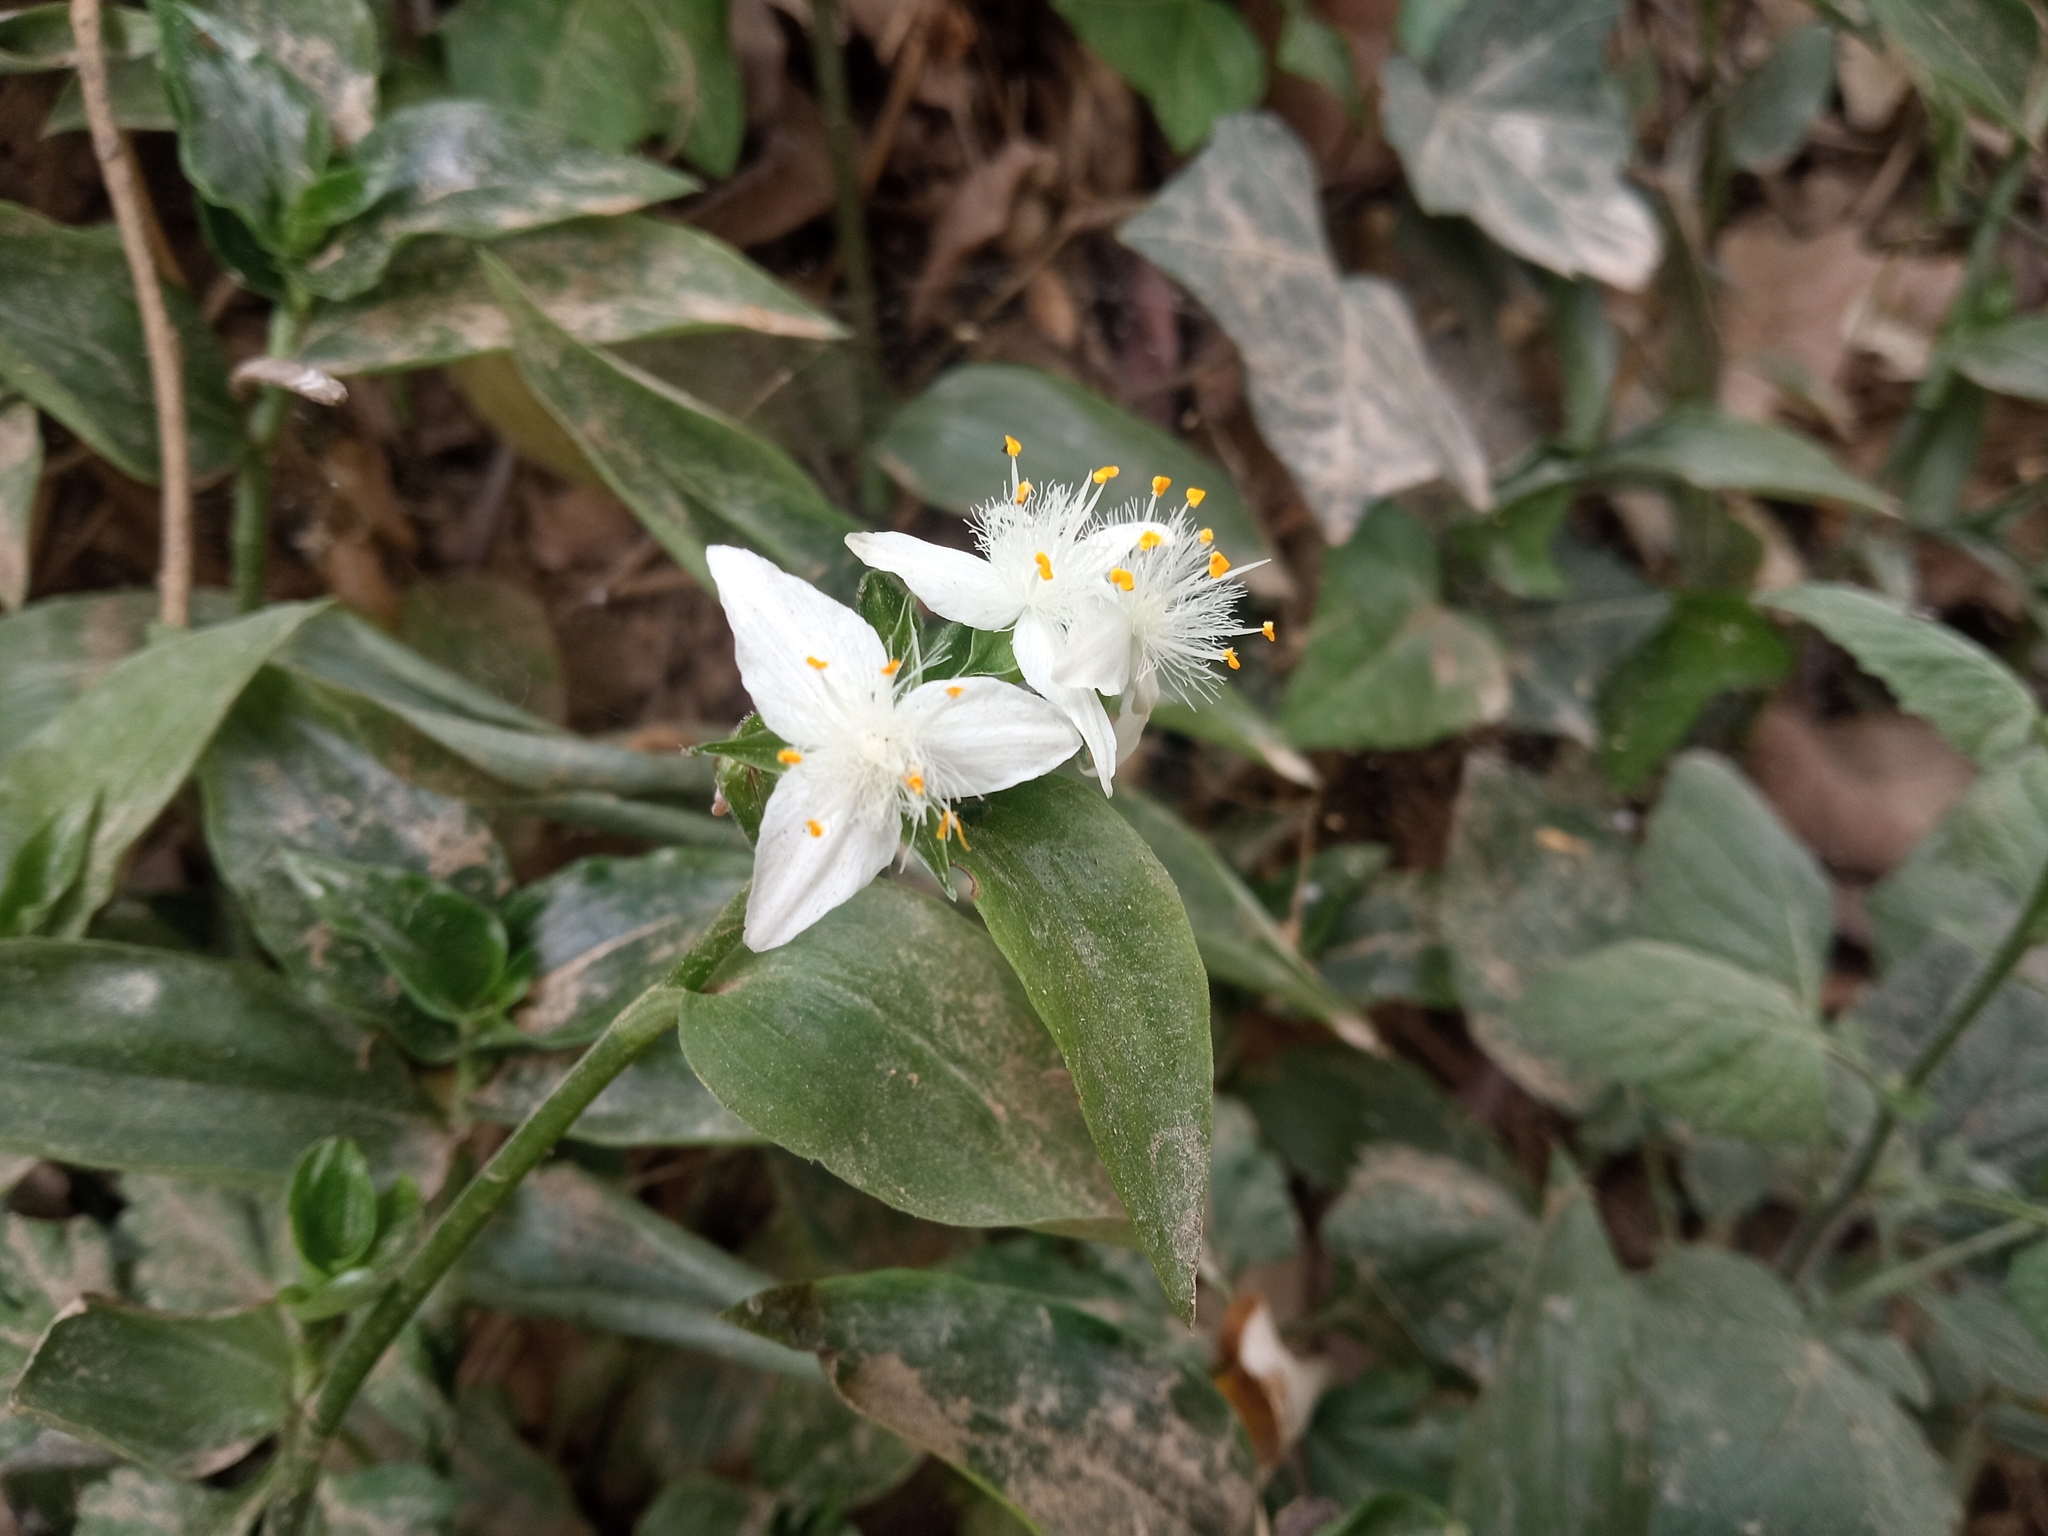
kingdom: Plantae
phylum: Tracheophyta
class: Liliopsida
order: Commelinales
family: Commelinaceae
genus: Tradescantia
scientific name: Tradescantia fluminensis
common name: Wandering-jew
